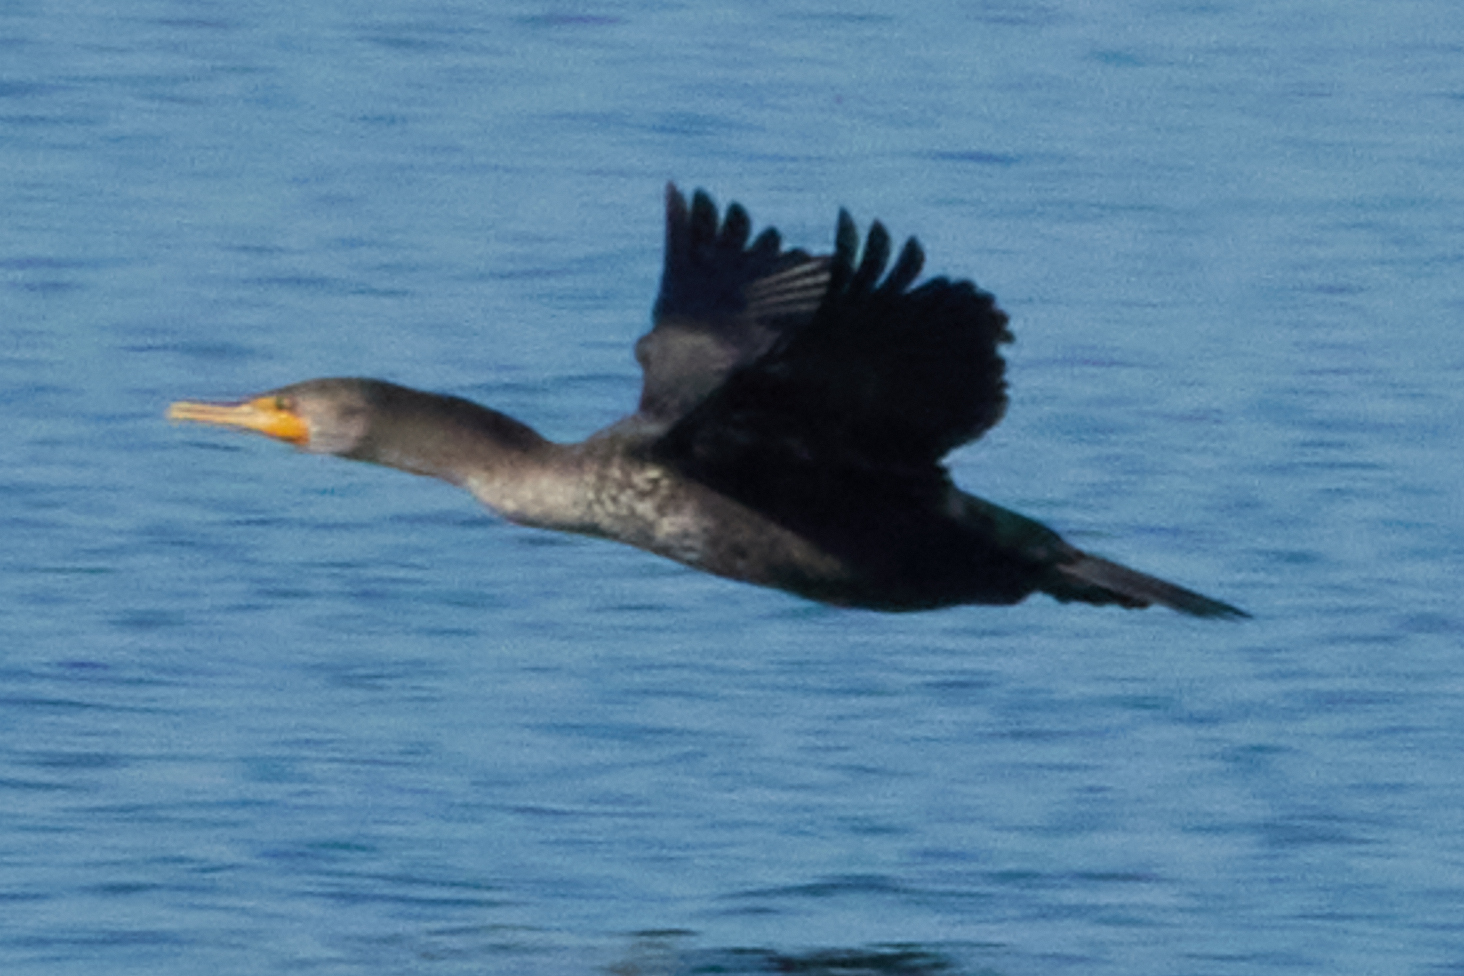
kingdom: Animalia
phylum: Chordata
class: Aves
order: Suliformes
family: Phalacrocoracidae
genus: Phalacrocorax
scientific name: Phalacrocorax auritus
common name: Double-crested cormorant
